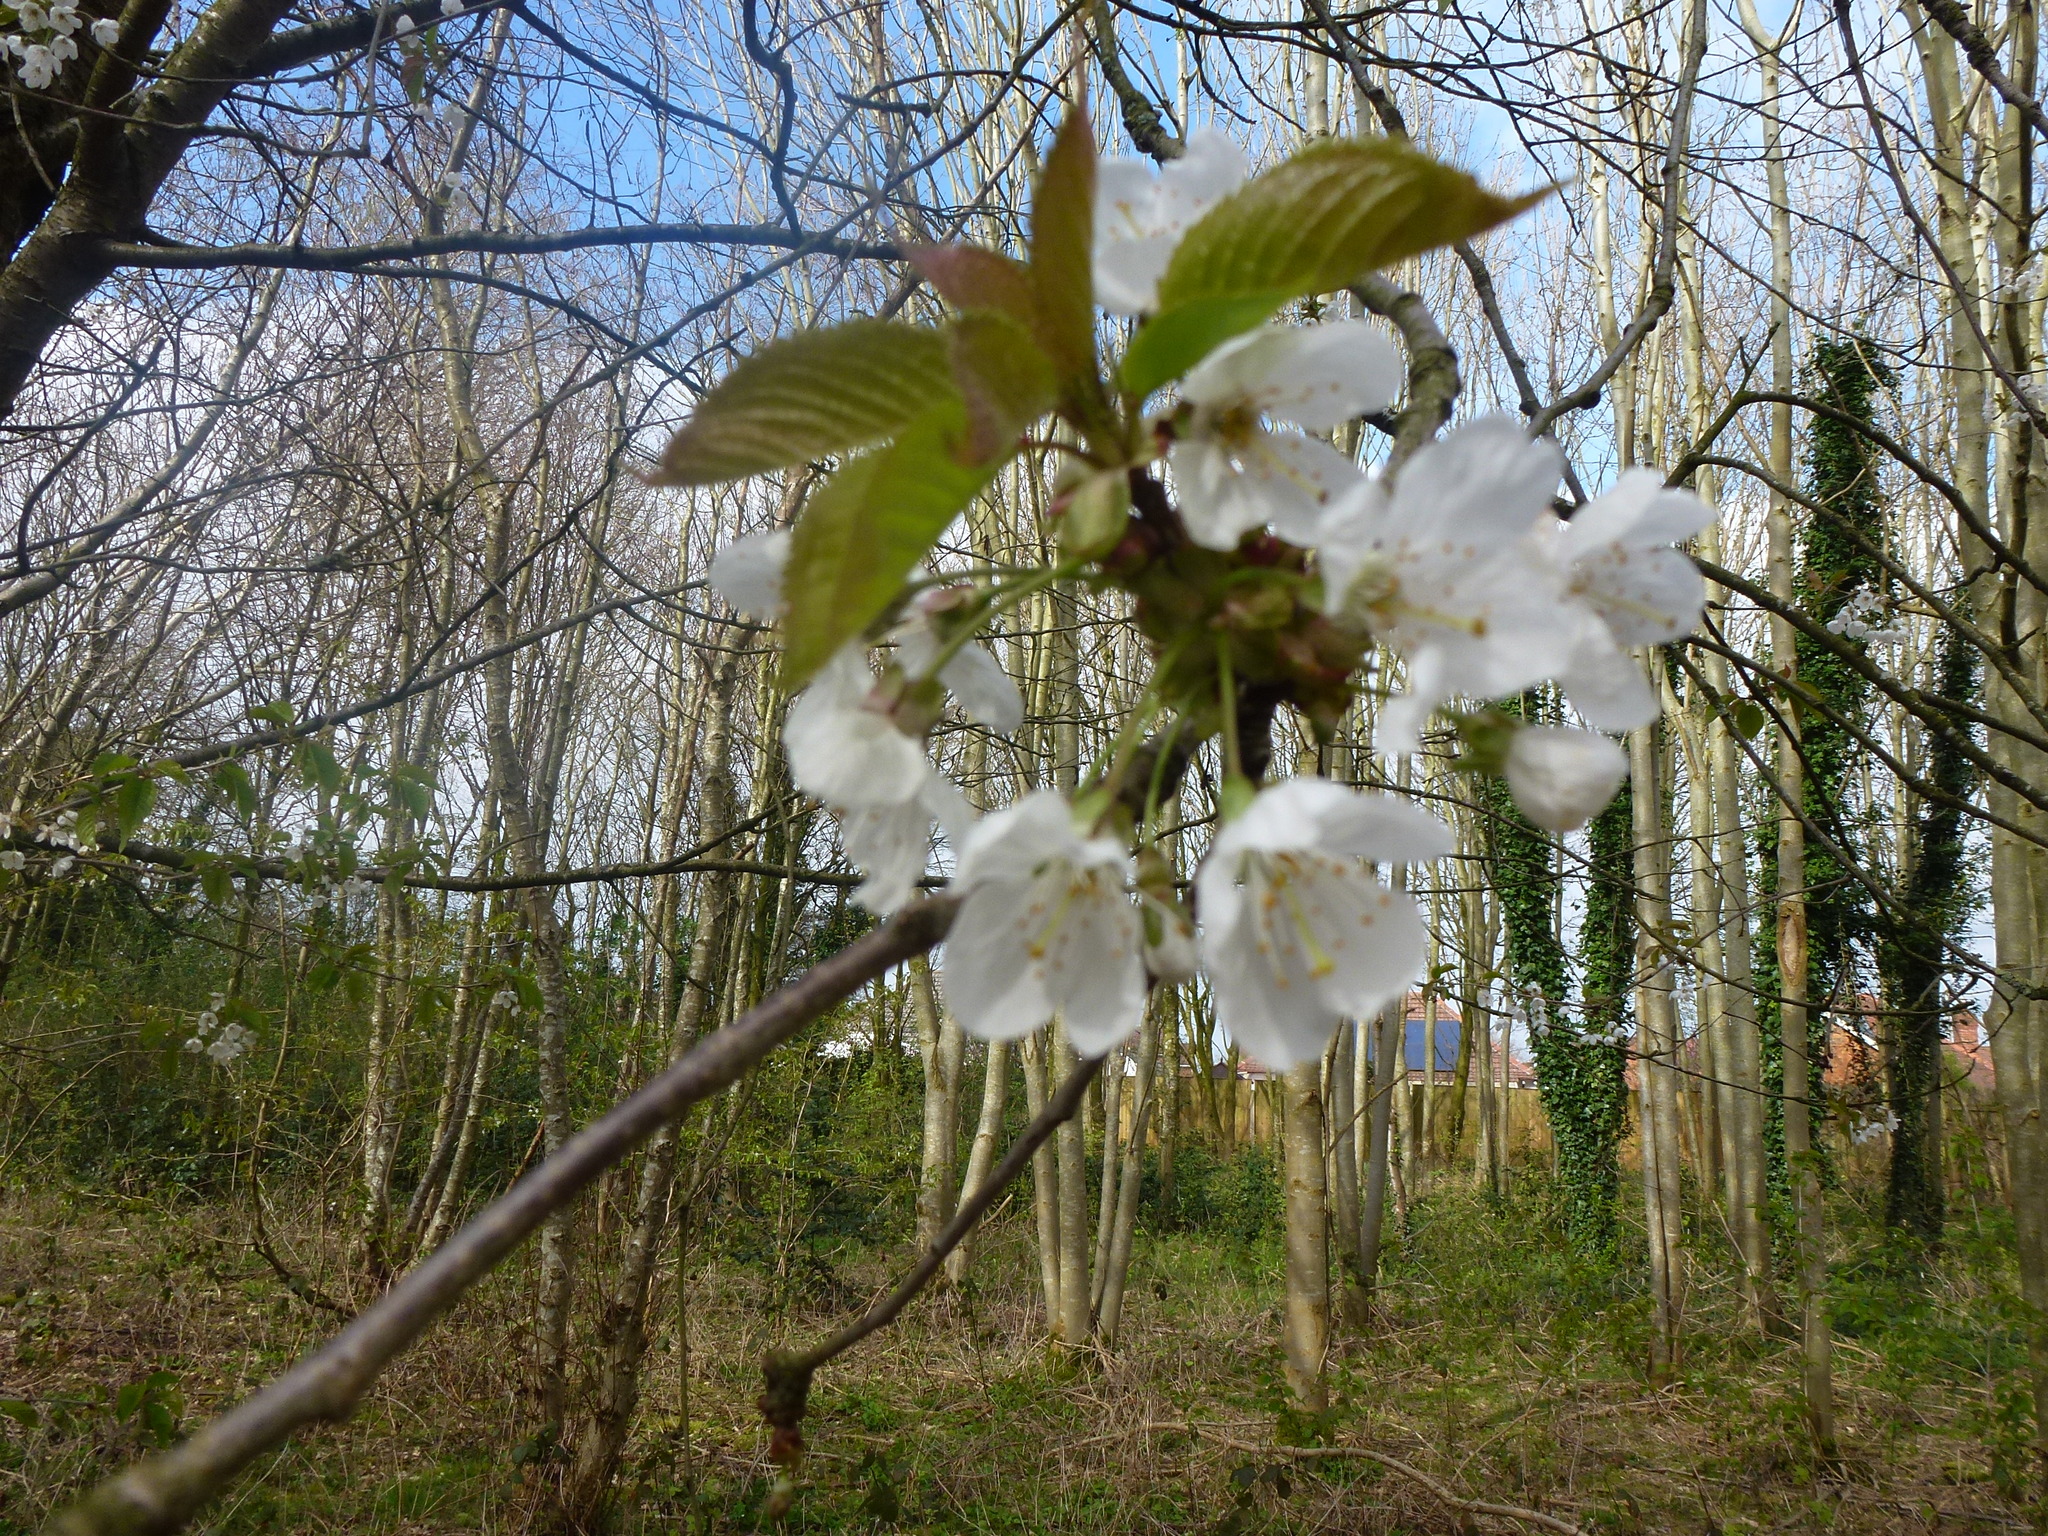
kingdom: Plantae
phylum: Tracheophyta
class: Magnoliopsida
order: Rosales
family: Rosaceae
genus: Prunus
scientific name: Prunus avium
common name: Sweet cherry
